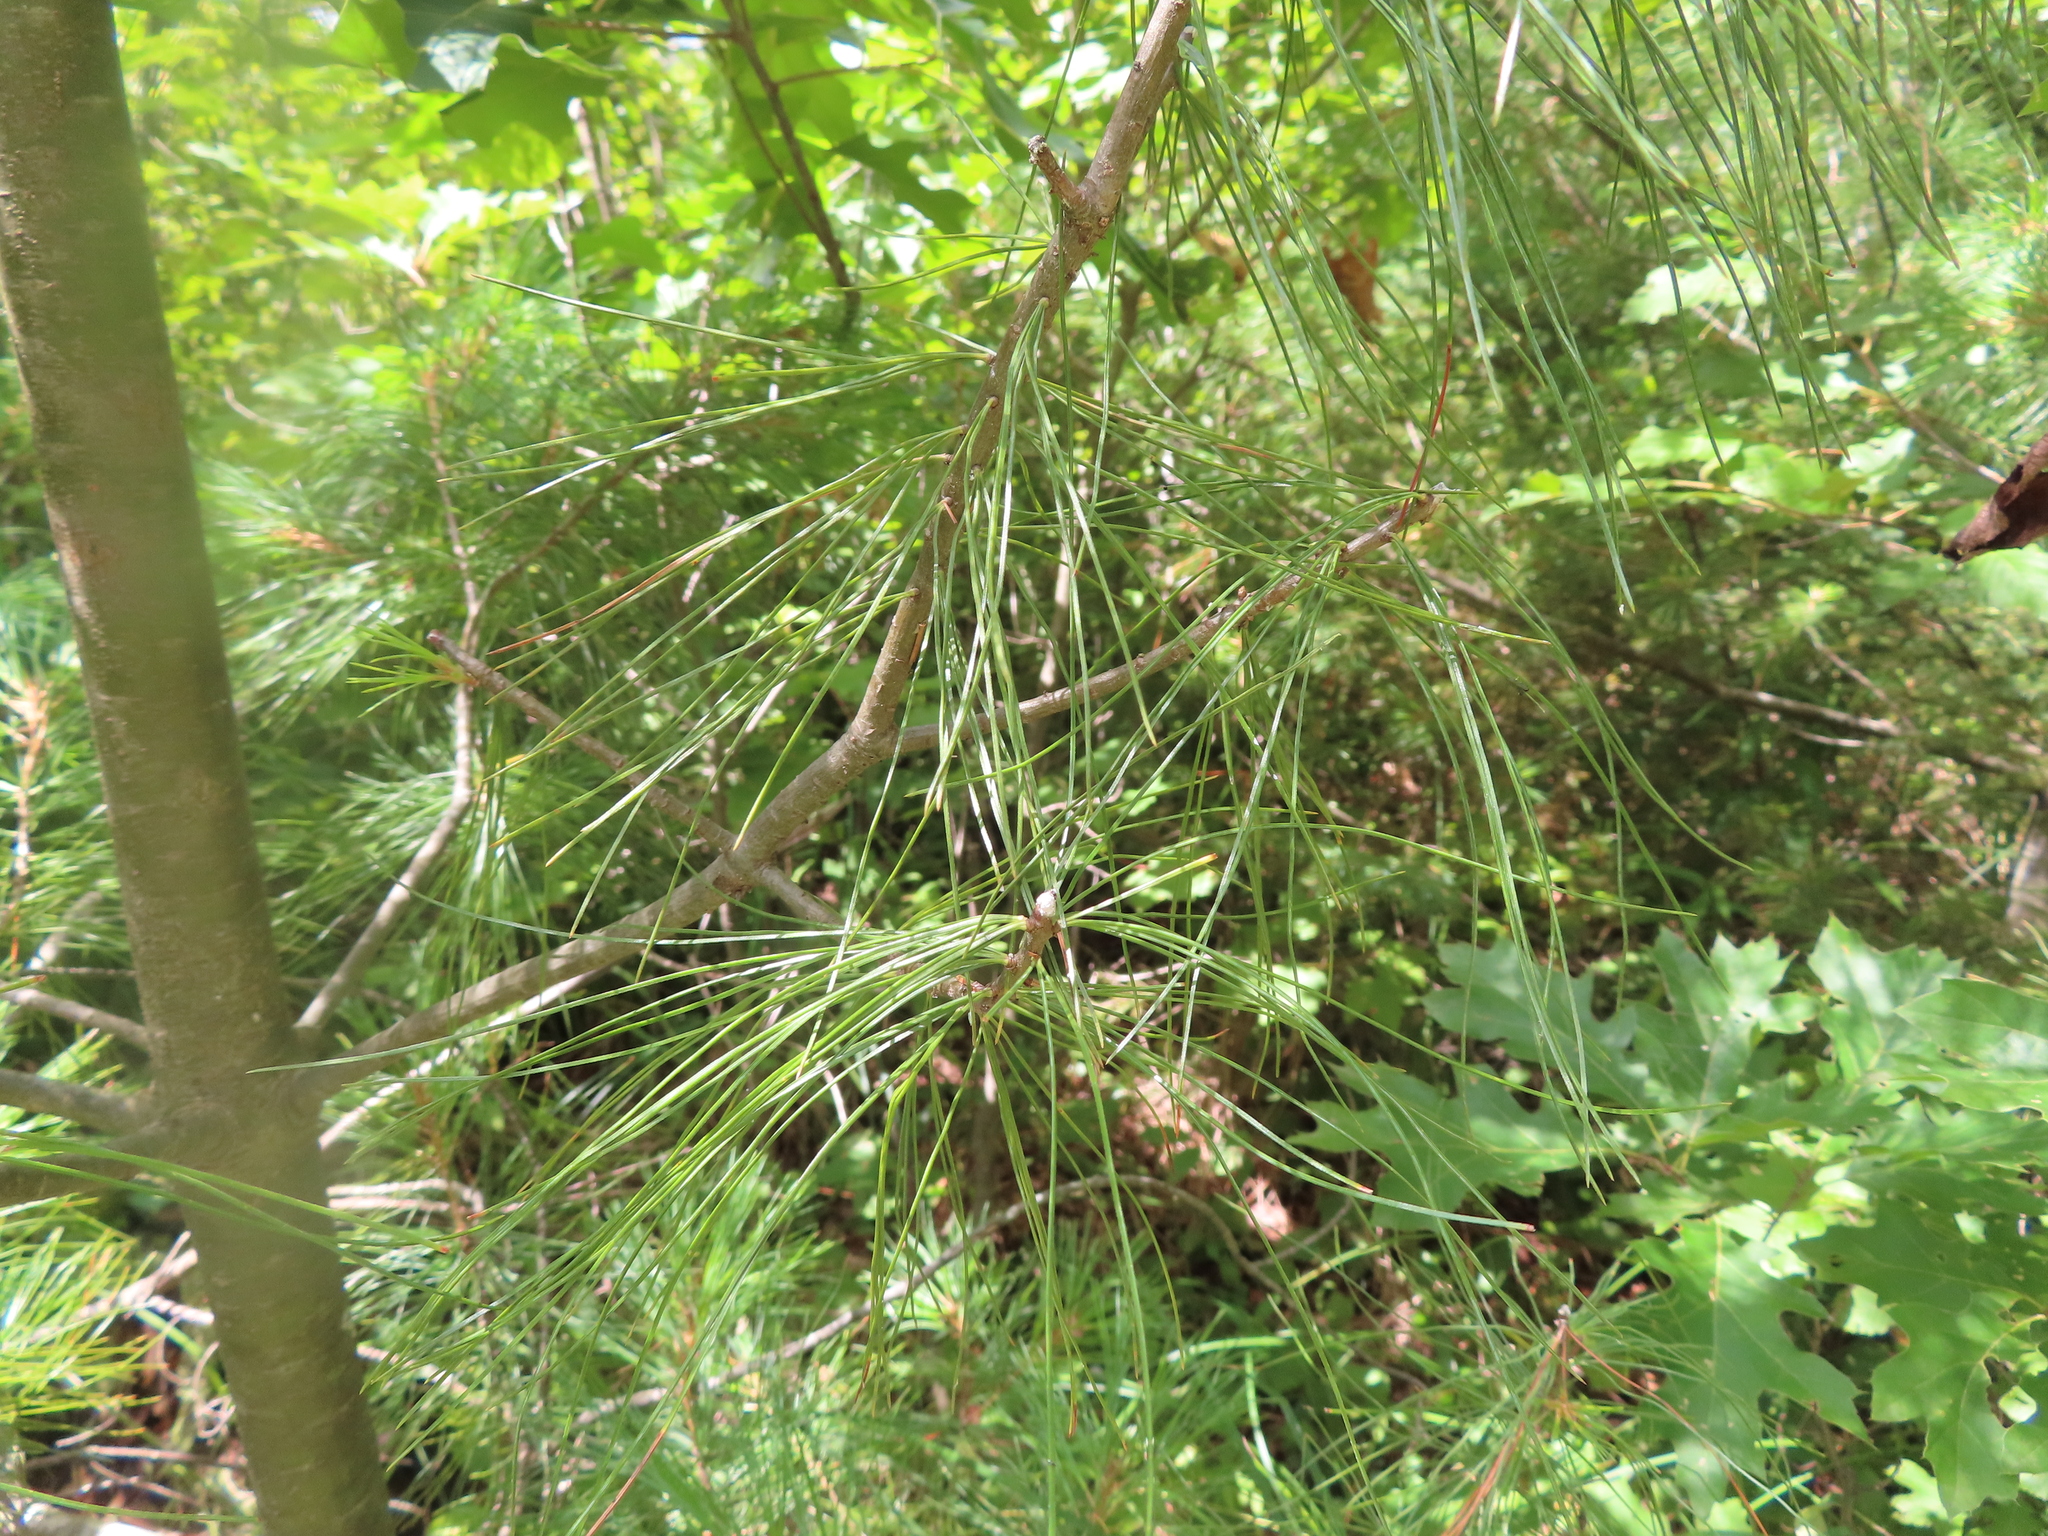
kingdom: Plantae
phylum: Tracheophyta
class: Pinopsida
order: Pinales
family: Pinaceae
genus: Pinus
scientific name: Pinus strobus
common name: Weymouth pine
